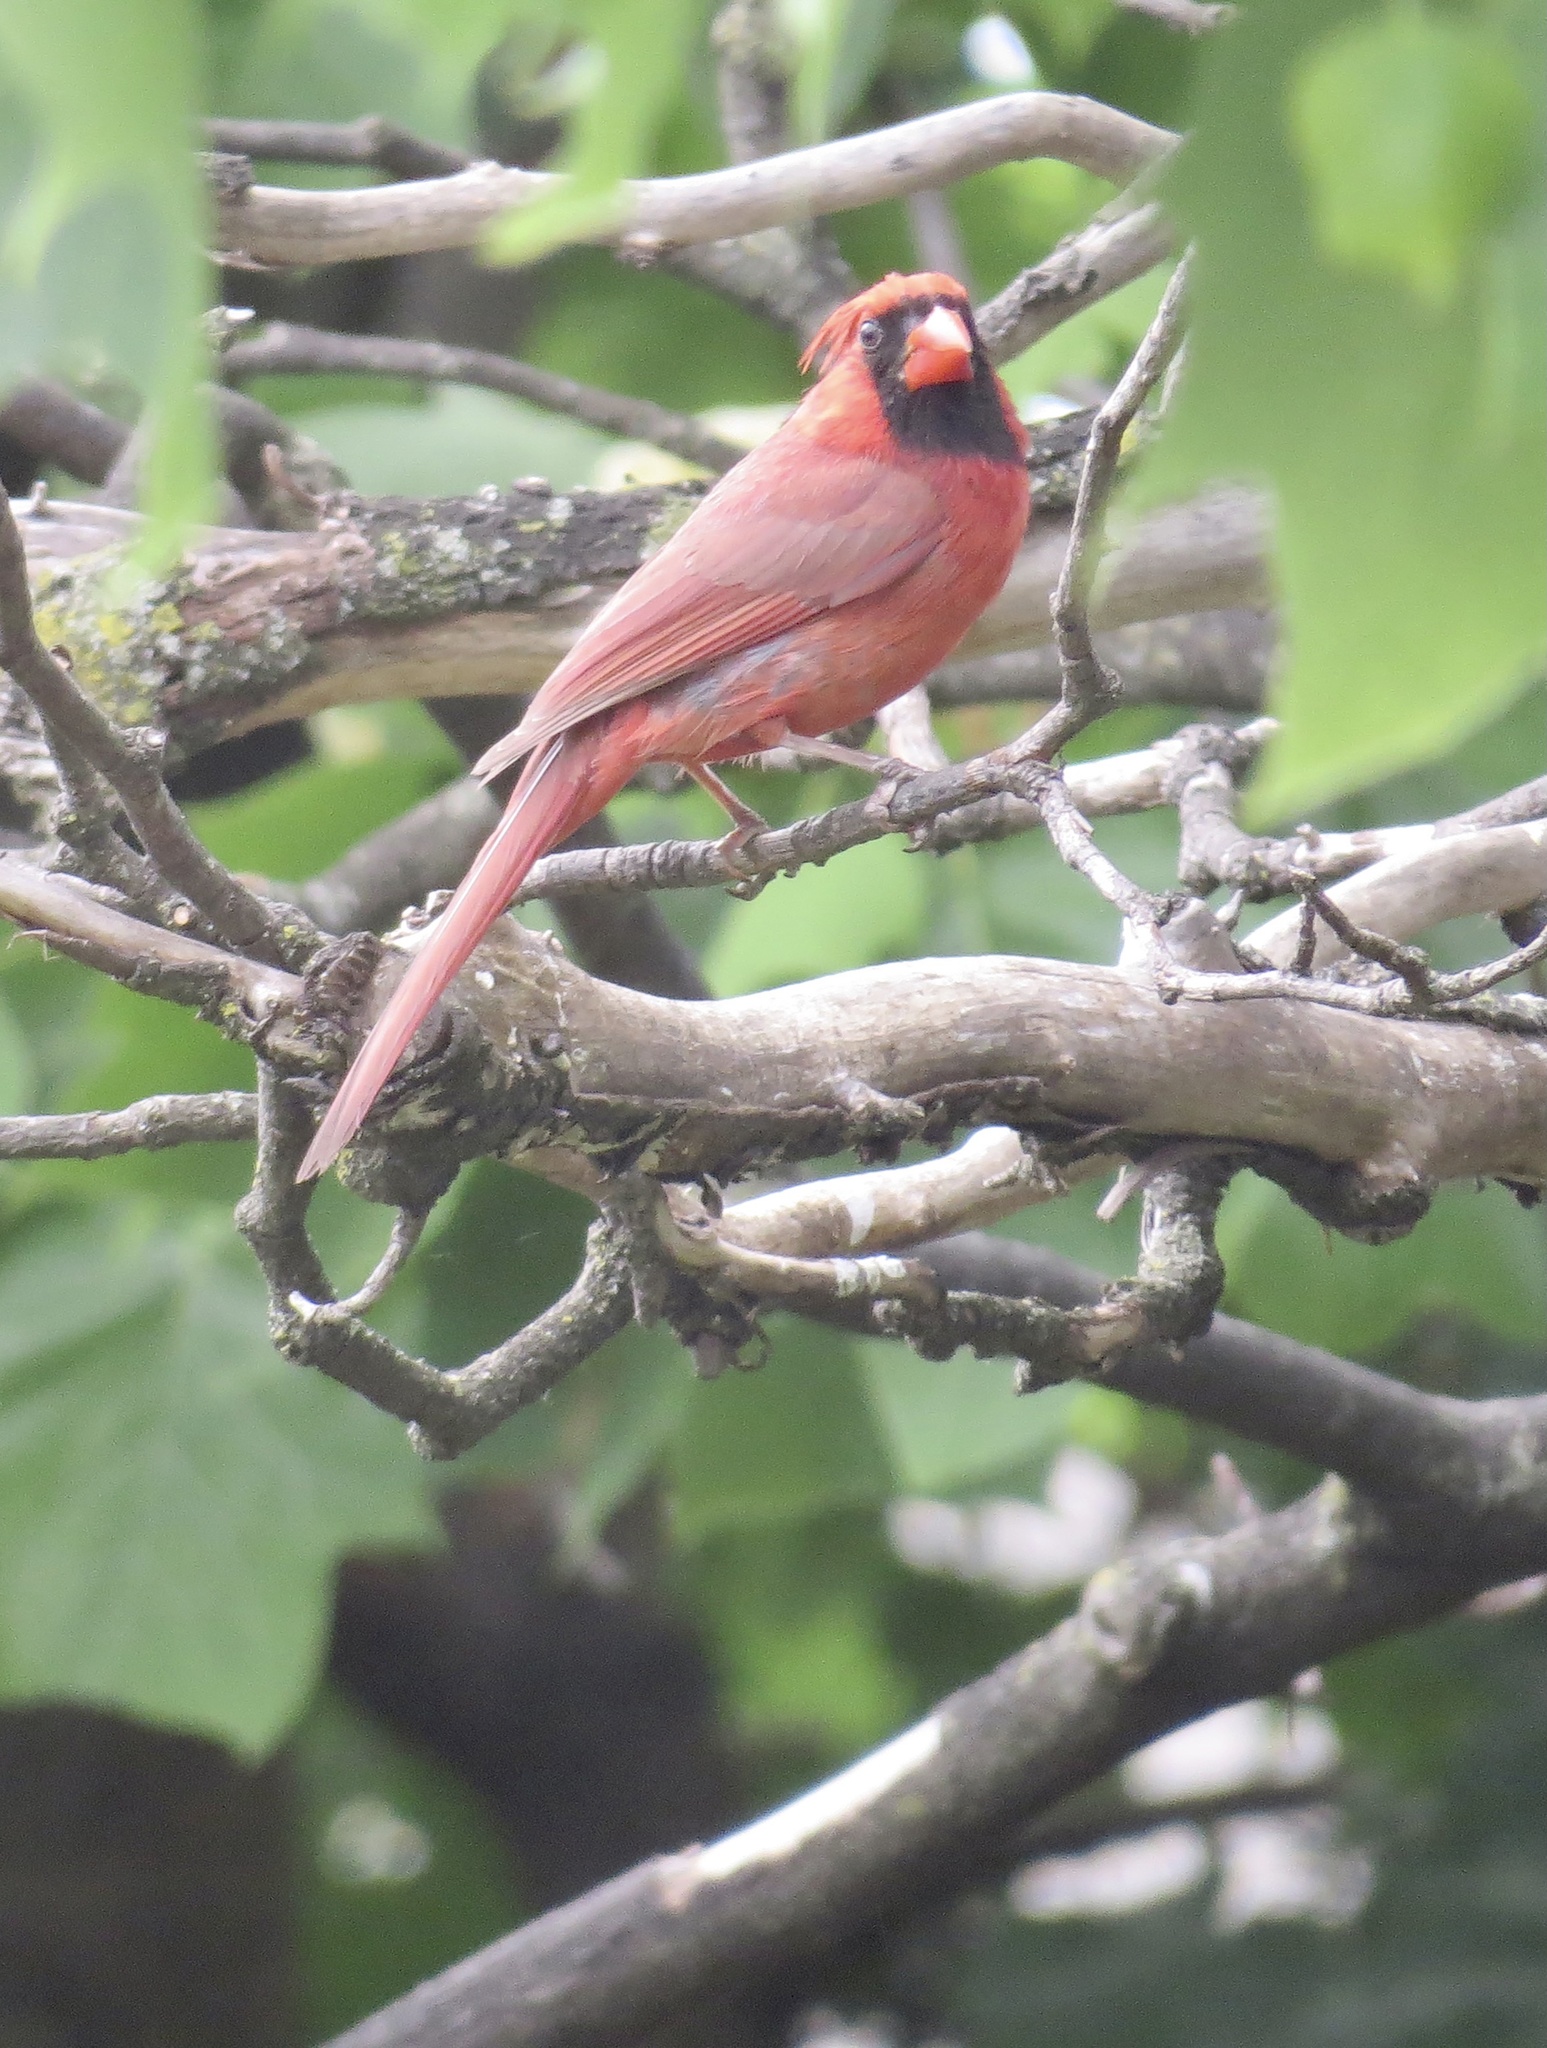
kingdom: Animalia
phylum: Chordata
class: Aves
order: Passeriformes
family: Cardinalidae
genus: Cardinalis
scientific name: Cardinalis cardinalis
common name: Northern cardinal
